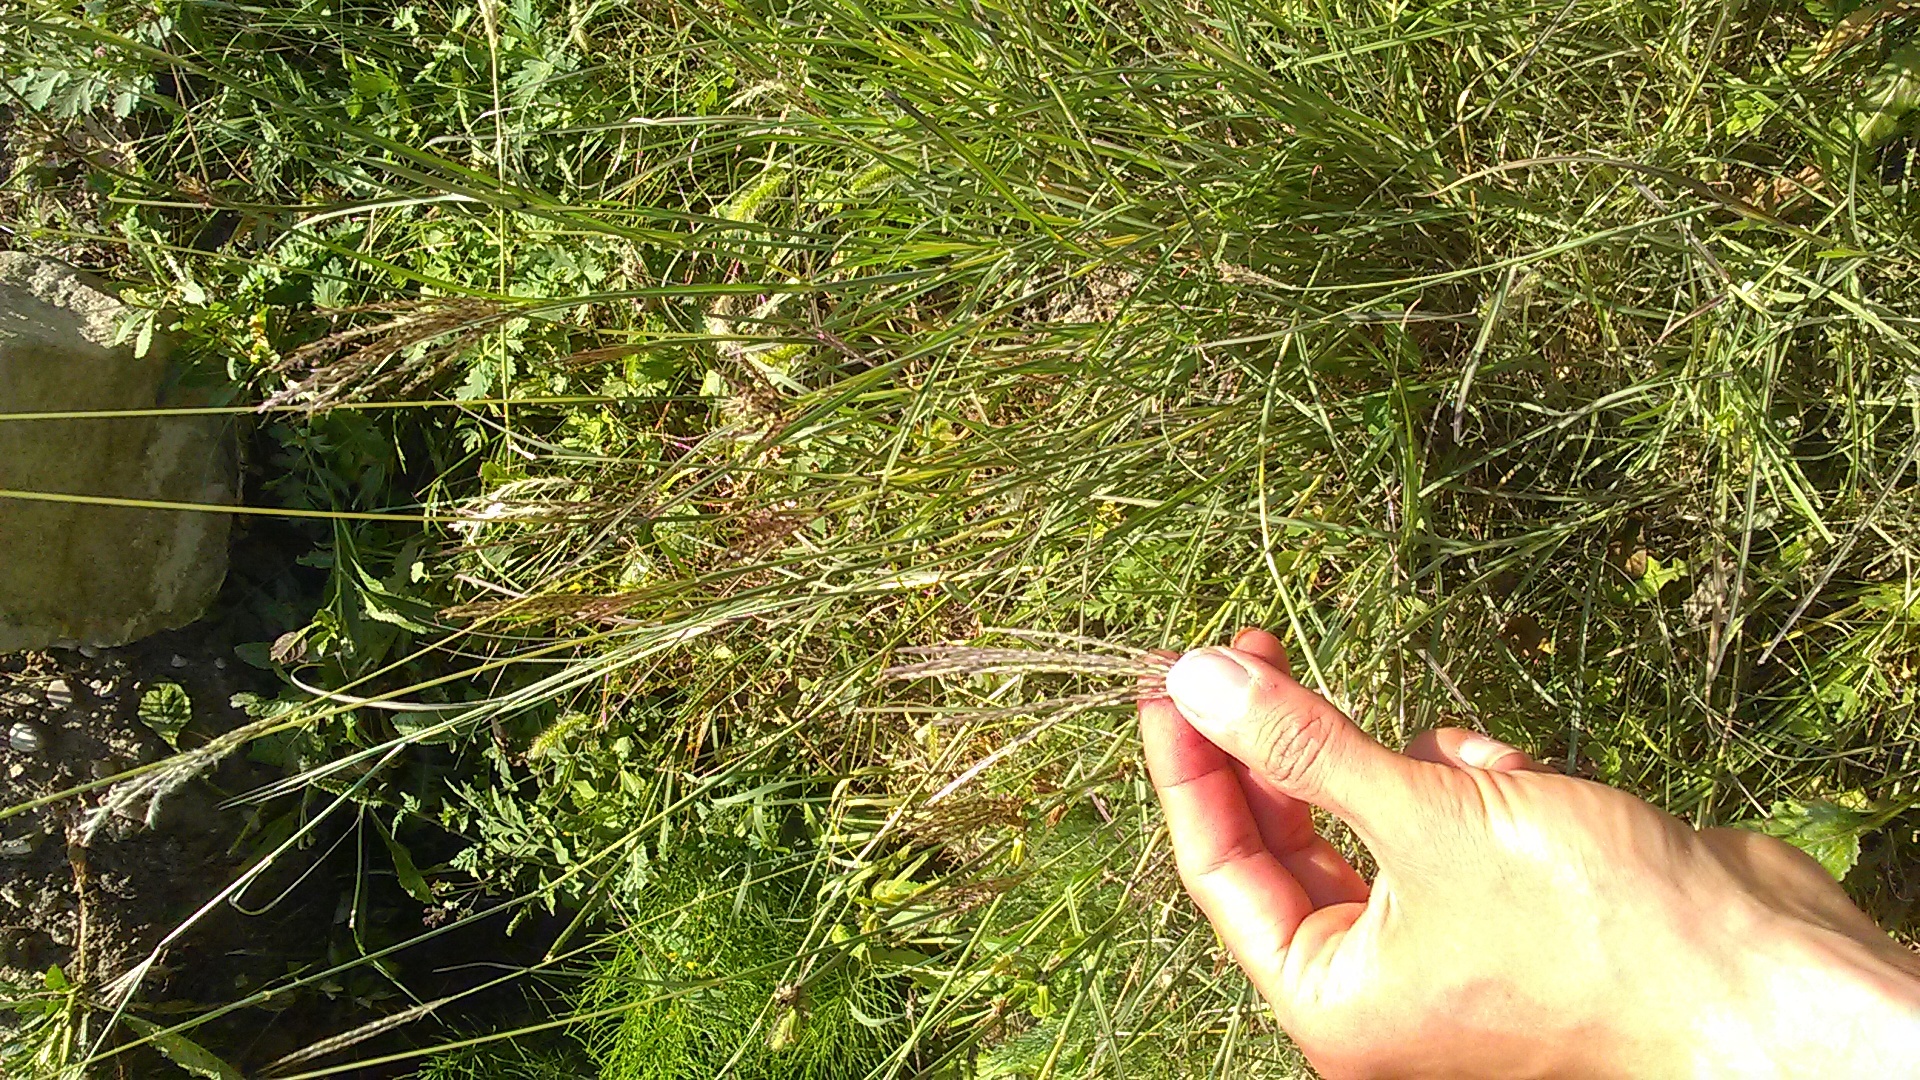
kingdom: Plantae
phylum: Tracheophyta
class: Liliopsida
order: Poales
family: Poaceae
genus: Bothriochloa
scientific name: Bothriochloa ischaemum
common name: Yellow bluestem
